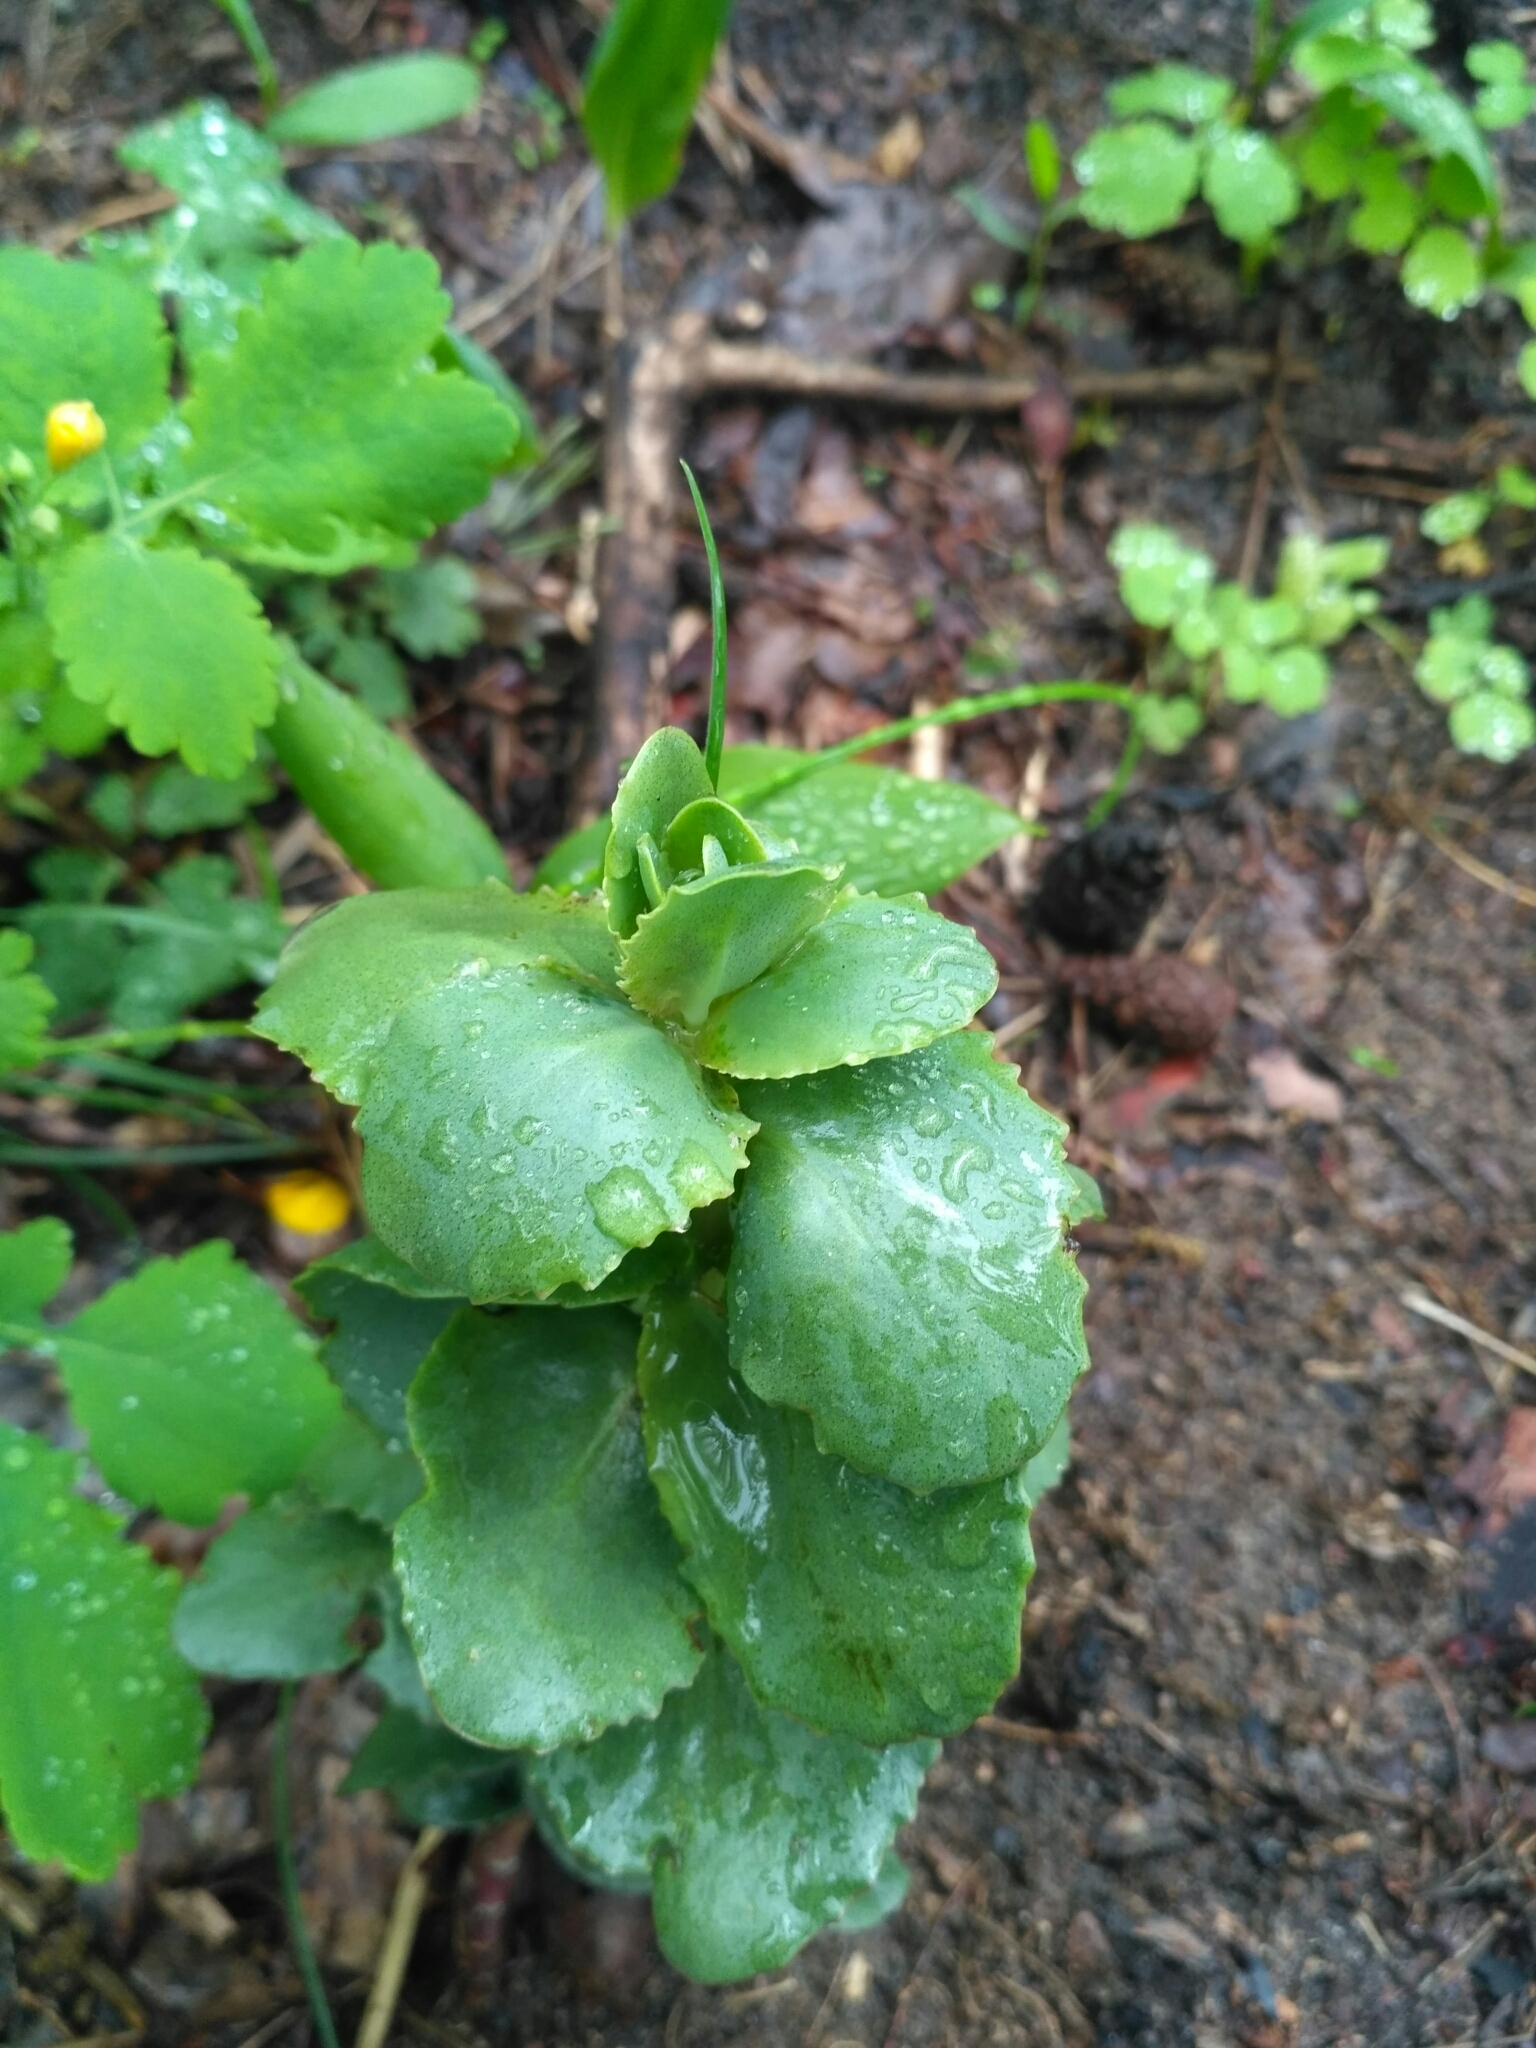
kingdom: Plantae
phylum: Tracheophyta
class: Magnoliopsida
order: Saxifragales
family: Crassulaceae
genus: Hylotelephium
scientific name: Hylotelephium maximum
